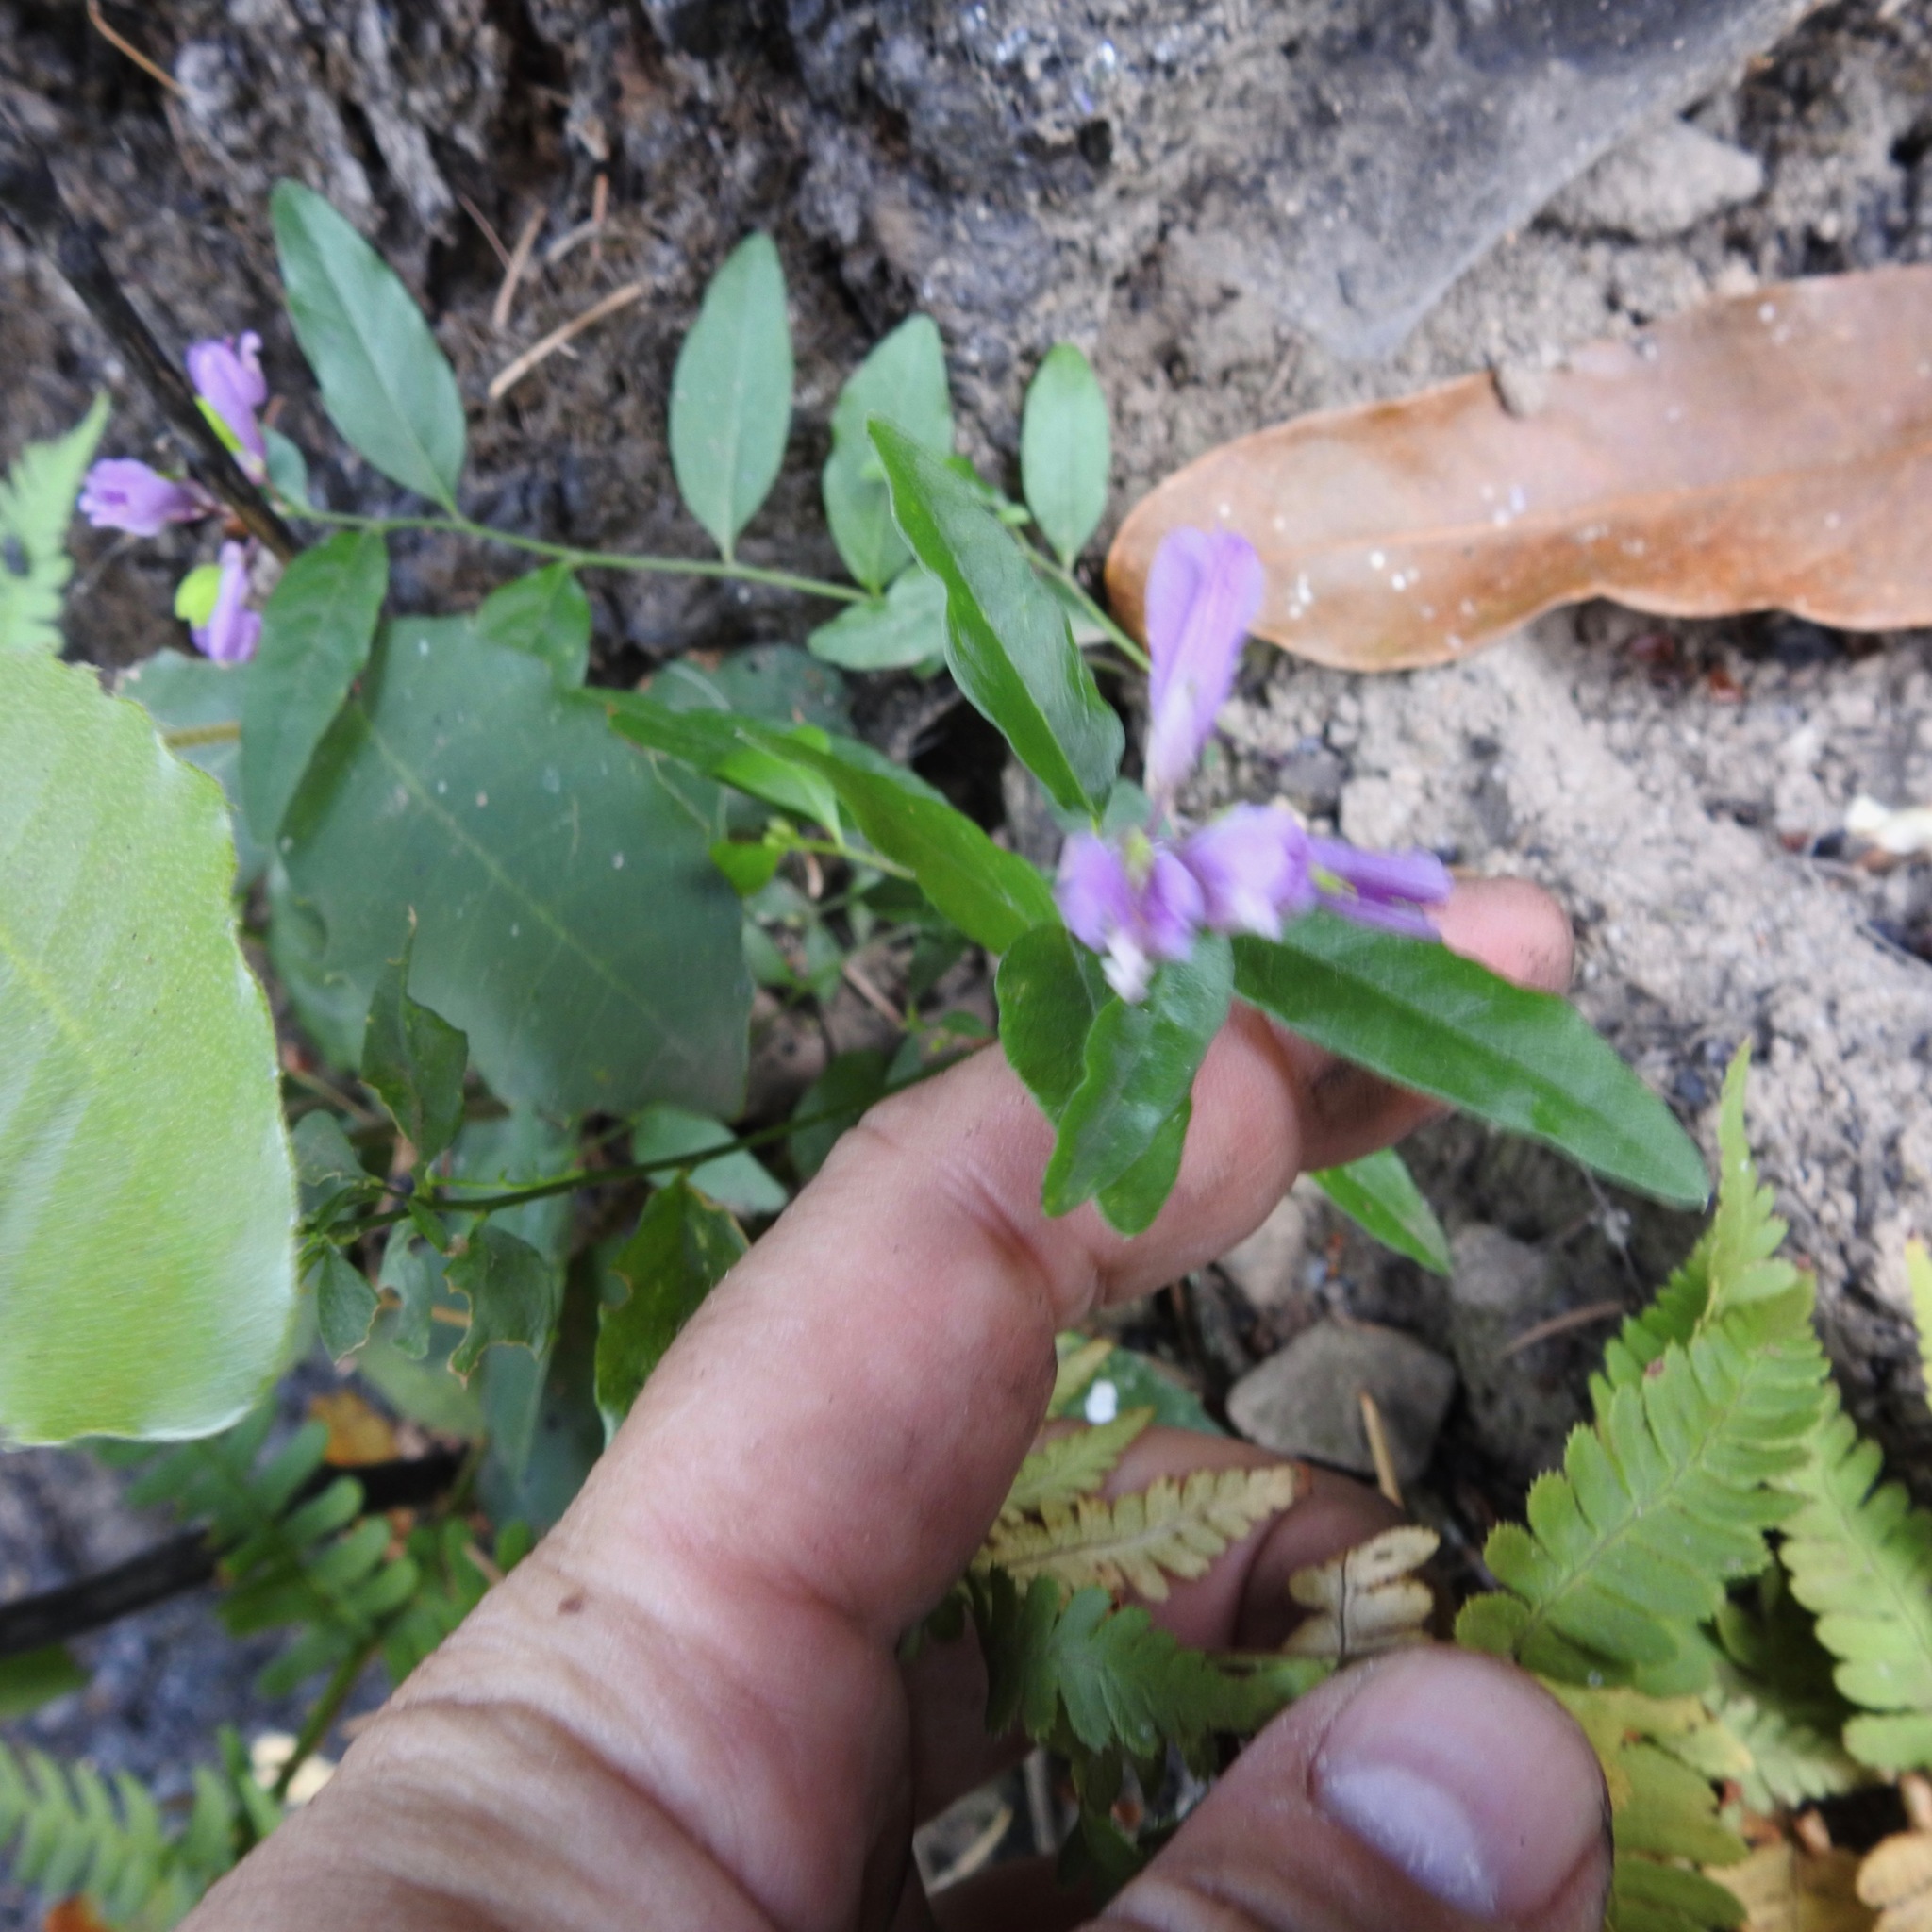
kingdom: Plantae
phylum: Tracheophyta
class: Magnoliopsida
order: Fabales
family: Polygalaceae
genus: Rhinotropis
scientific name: Rhinotropis californica
